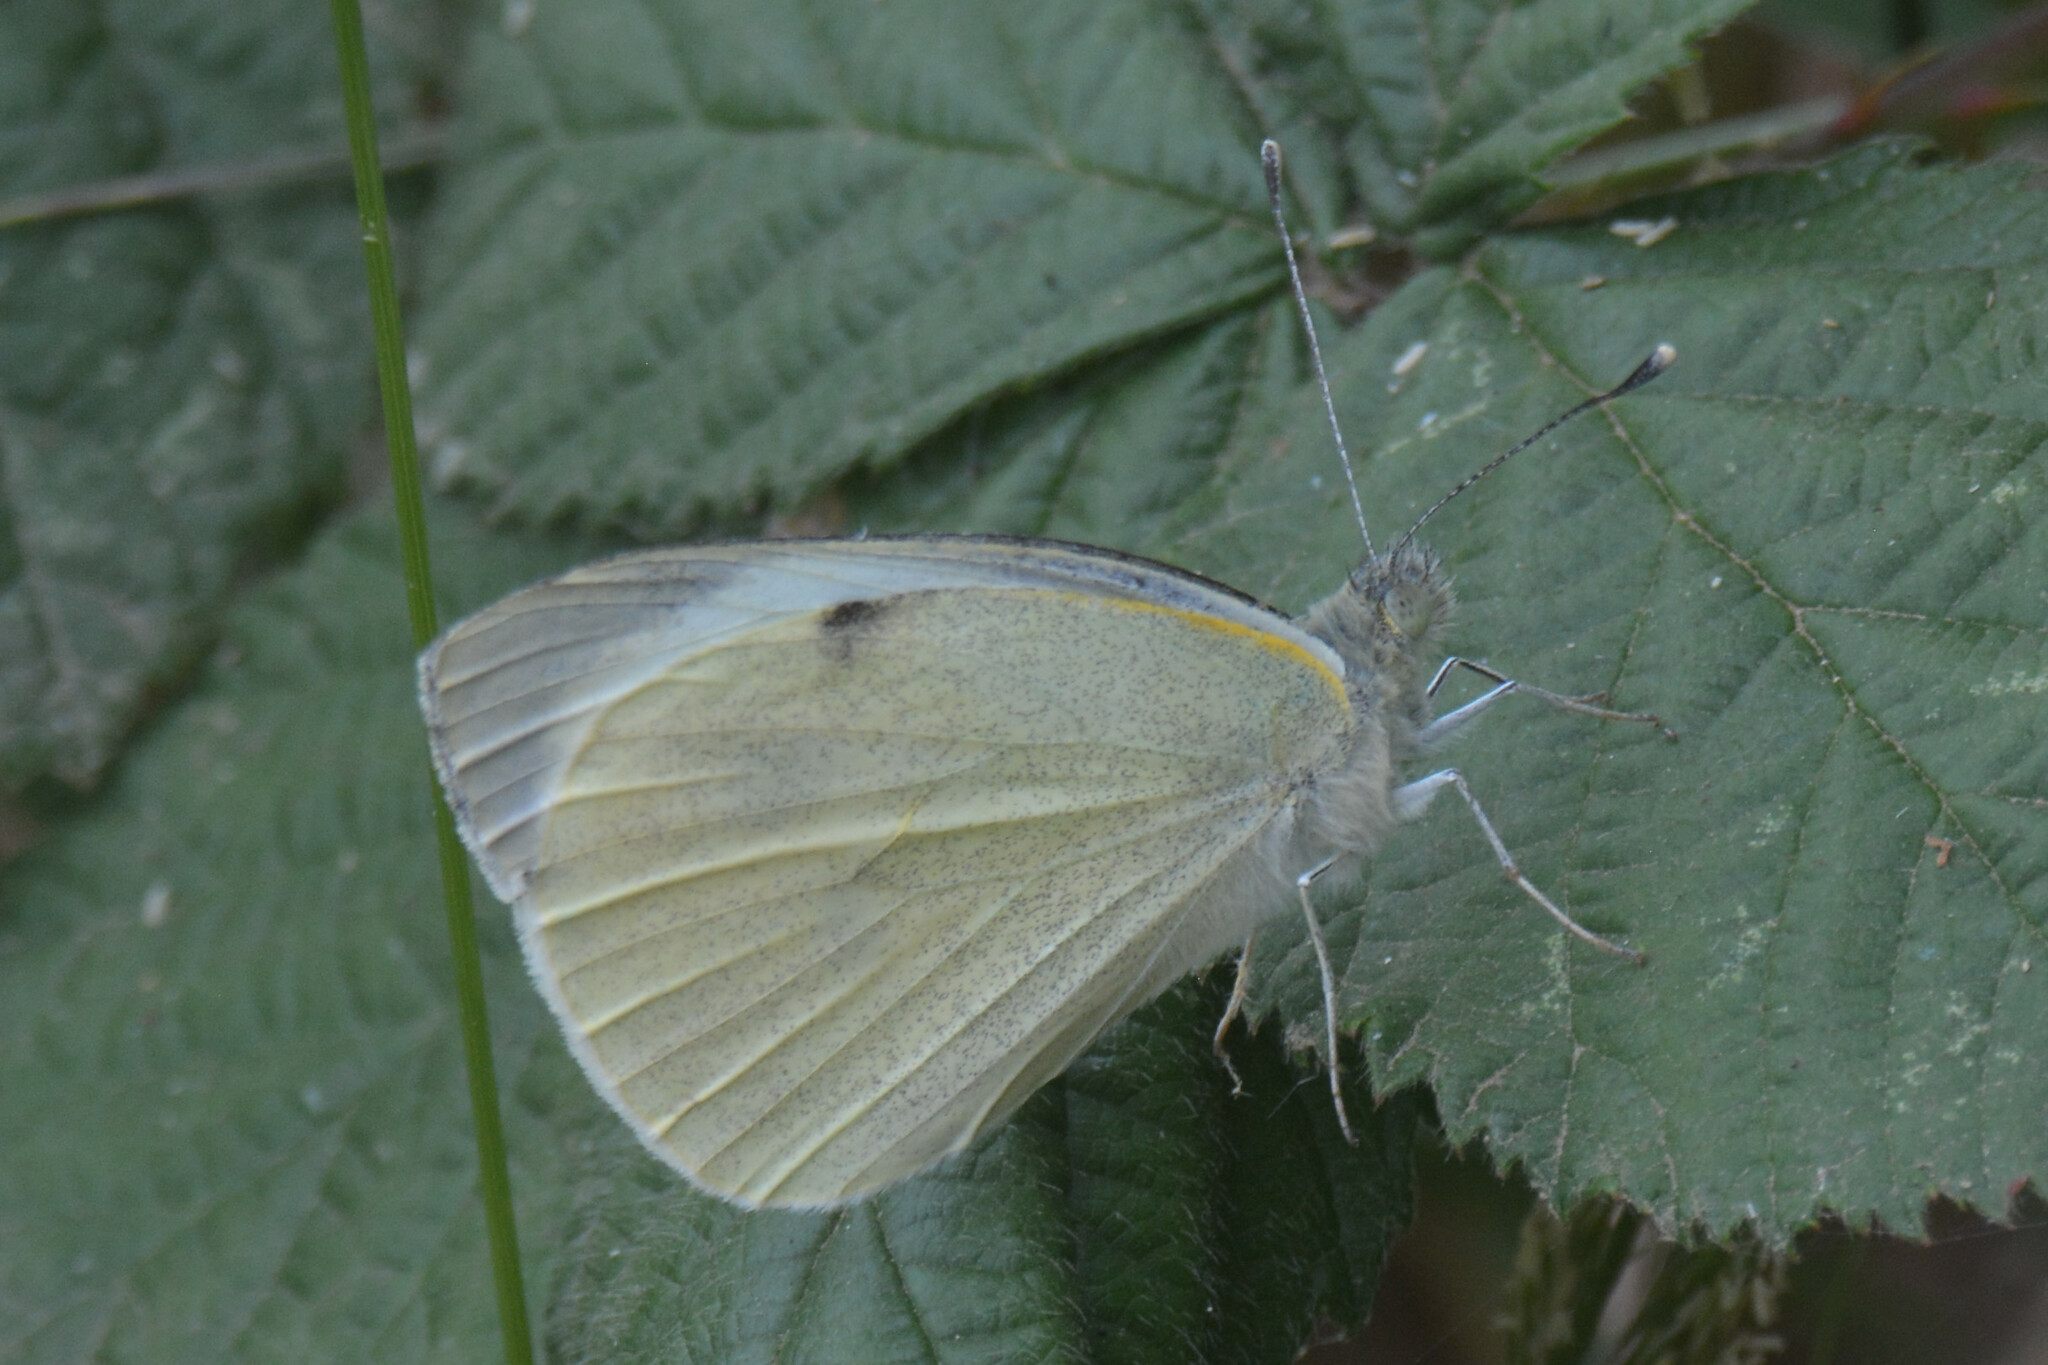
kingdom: Animalia
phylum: Arthropoda
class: Insecta
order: Lepidoptera
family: Pieridae
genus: Pieris
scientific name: Pieris brassicae
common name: Large white
